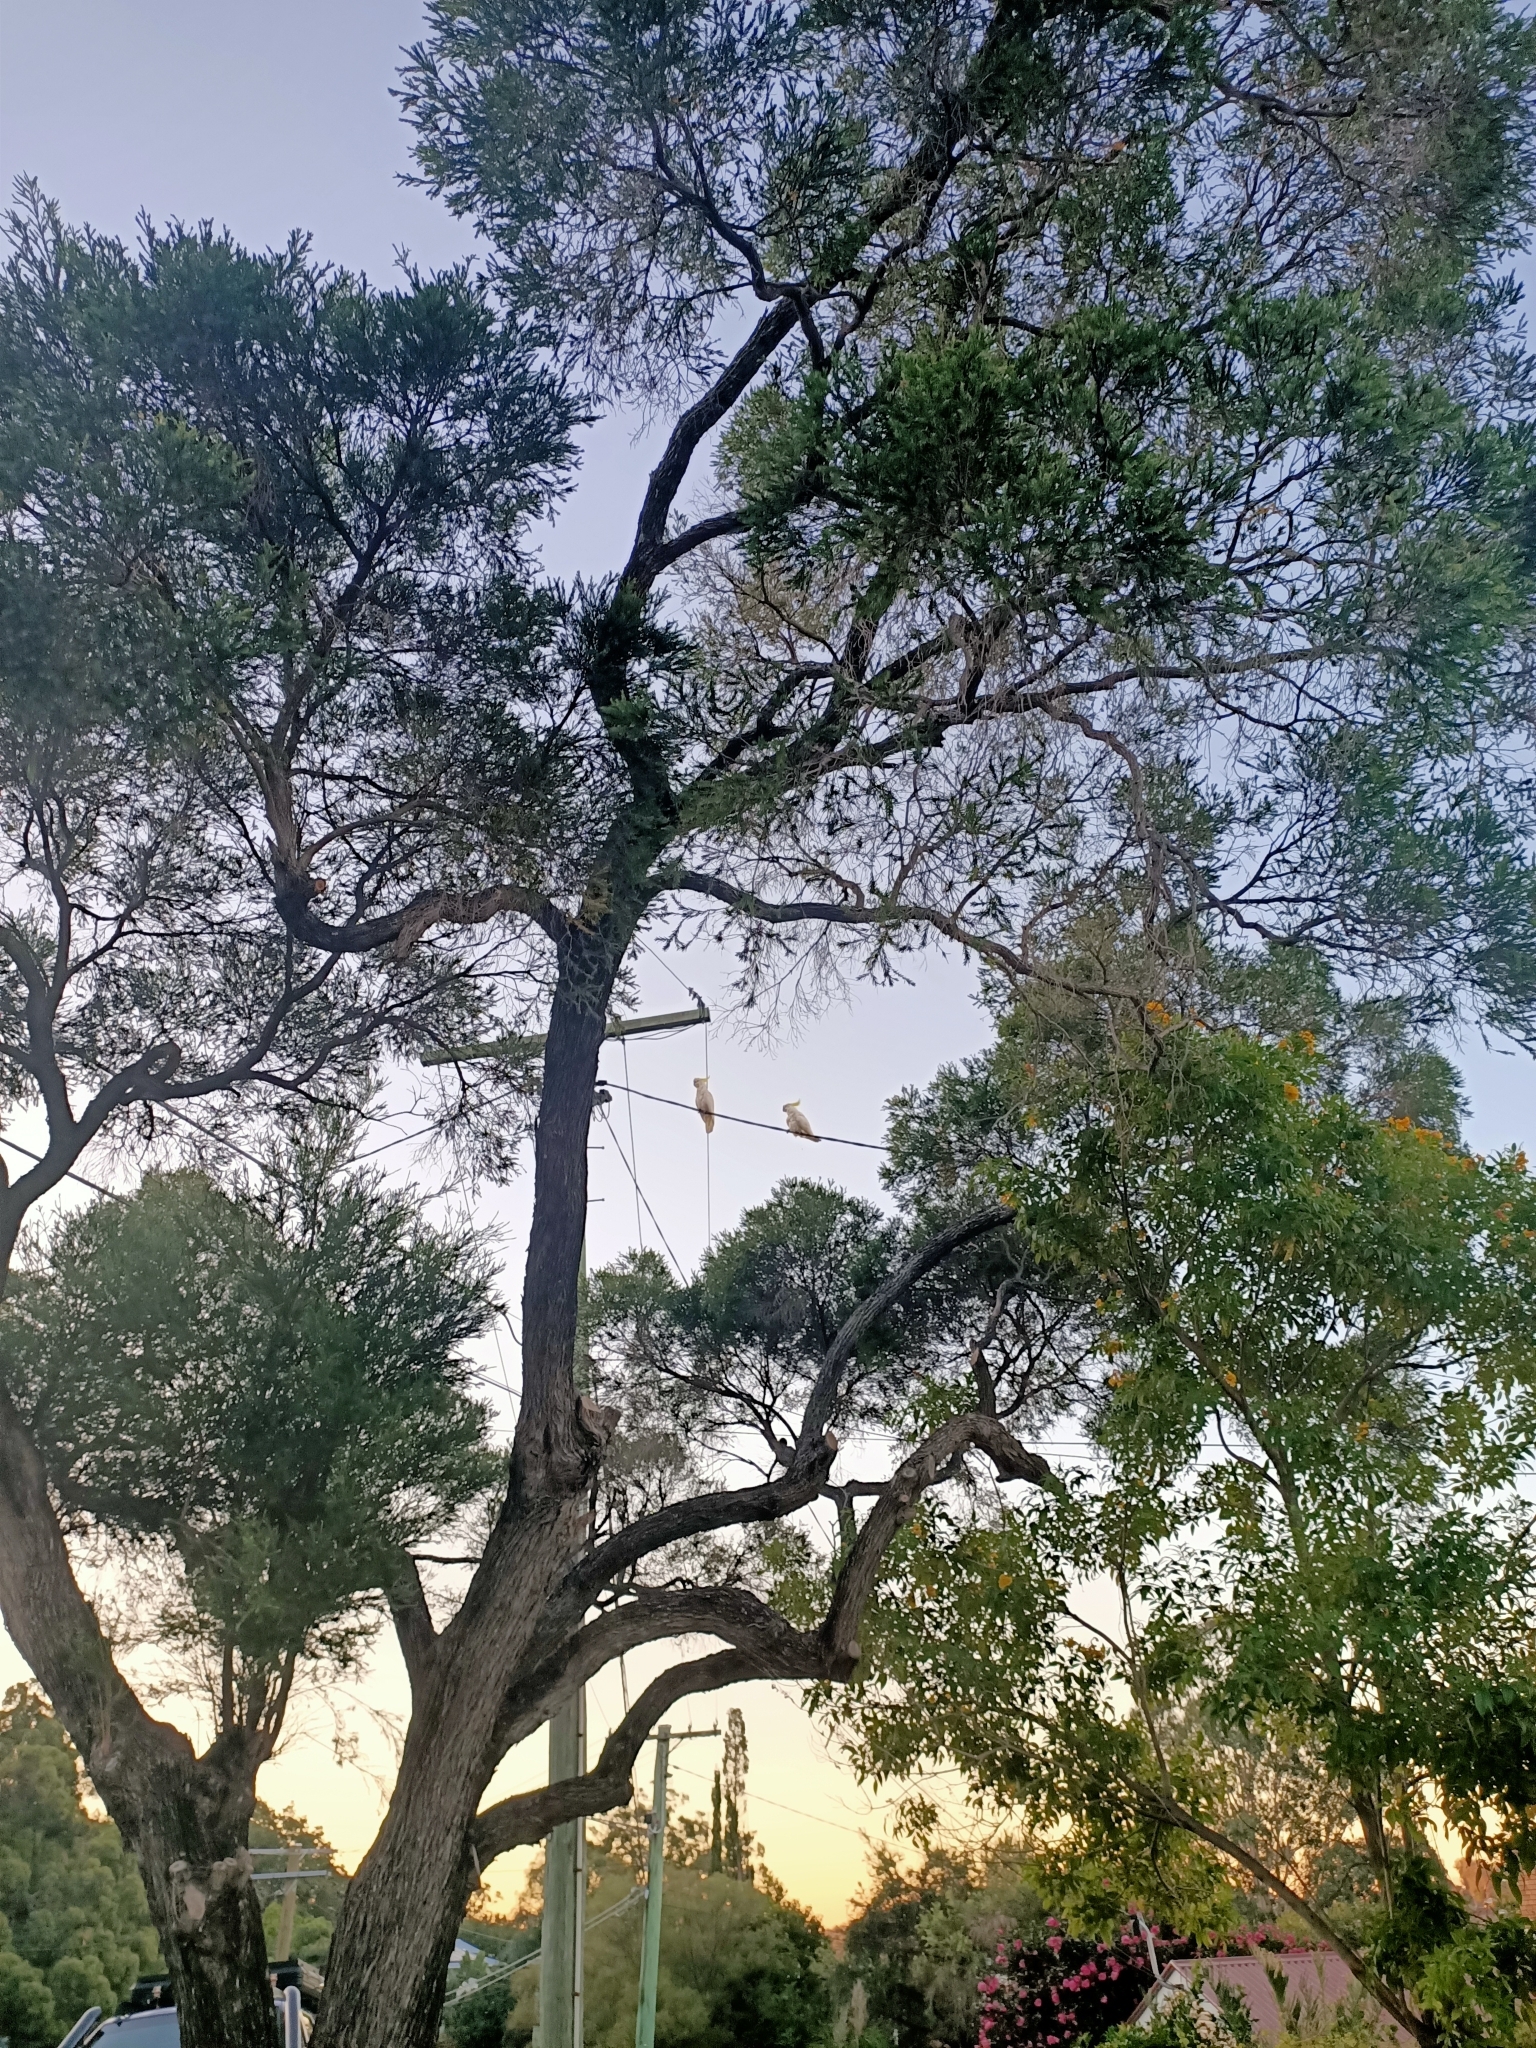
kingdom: Animalia
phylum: Chordata
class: Aves
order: Psittaciformes
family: Psittacidae
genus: Cacatua
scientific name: Cacatua galerita
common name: Sulphur-crested cockatoo
